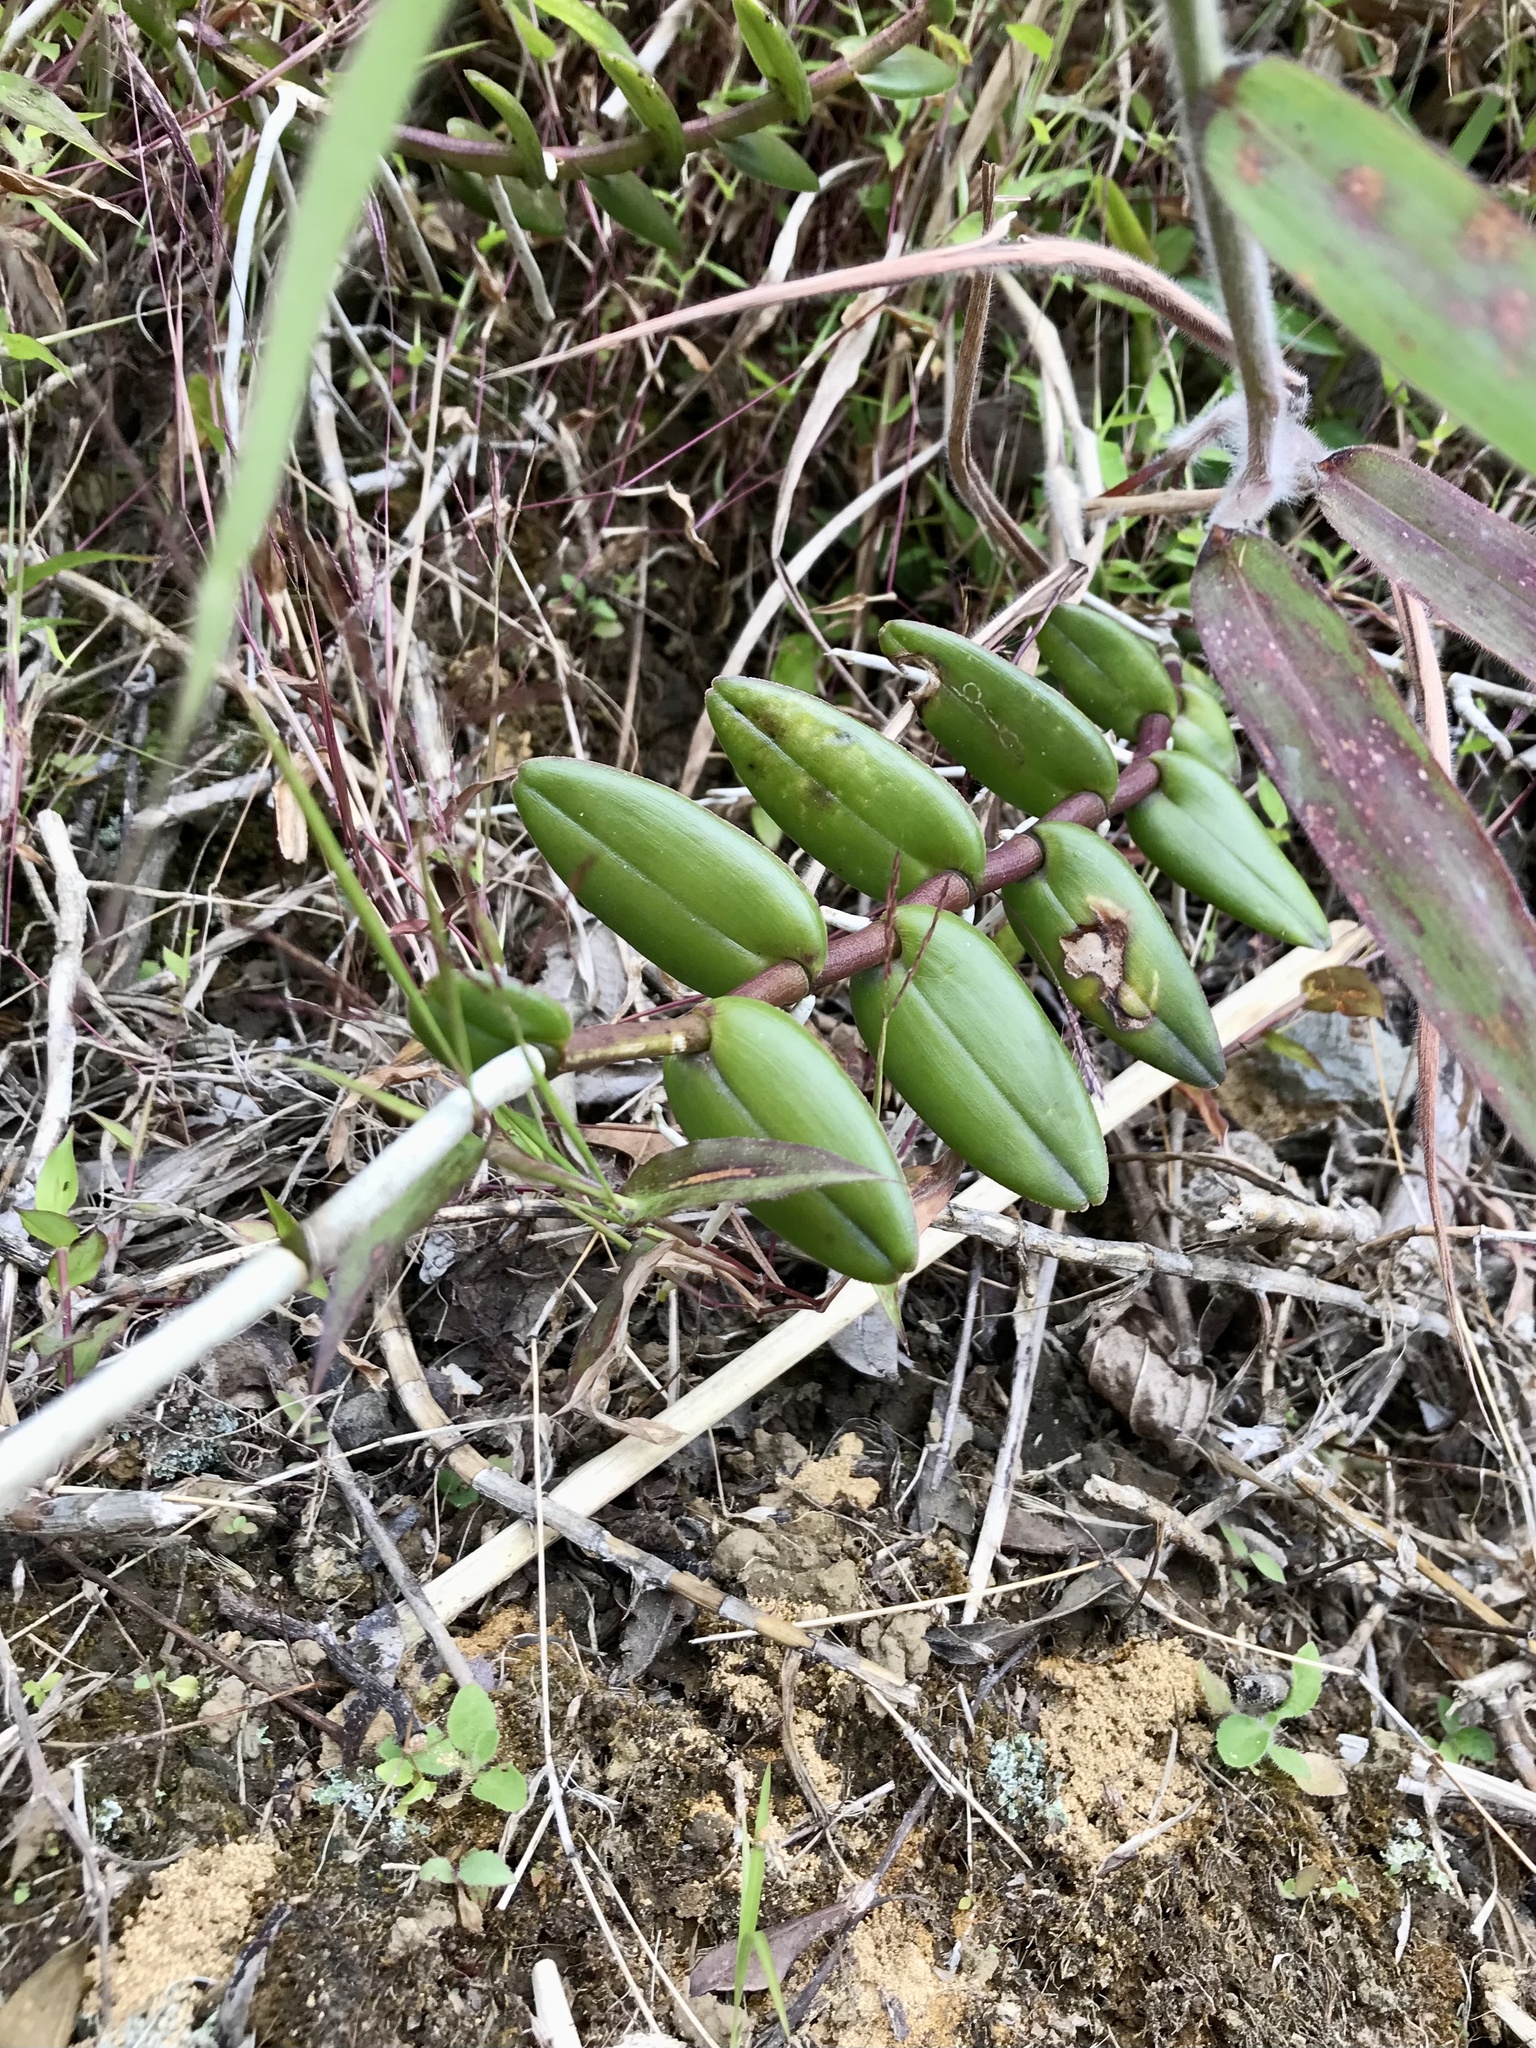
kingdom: Plantae
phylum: Tracheophyta
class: Liliopsida
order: Asparagales
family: Orchidaceae
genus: Epidendrum
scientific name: Epidendrum radicans
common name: Fire star orchid
